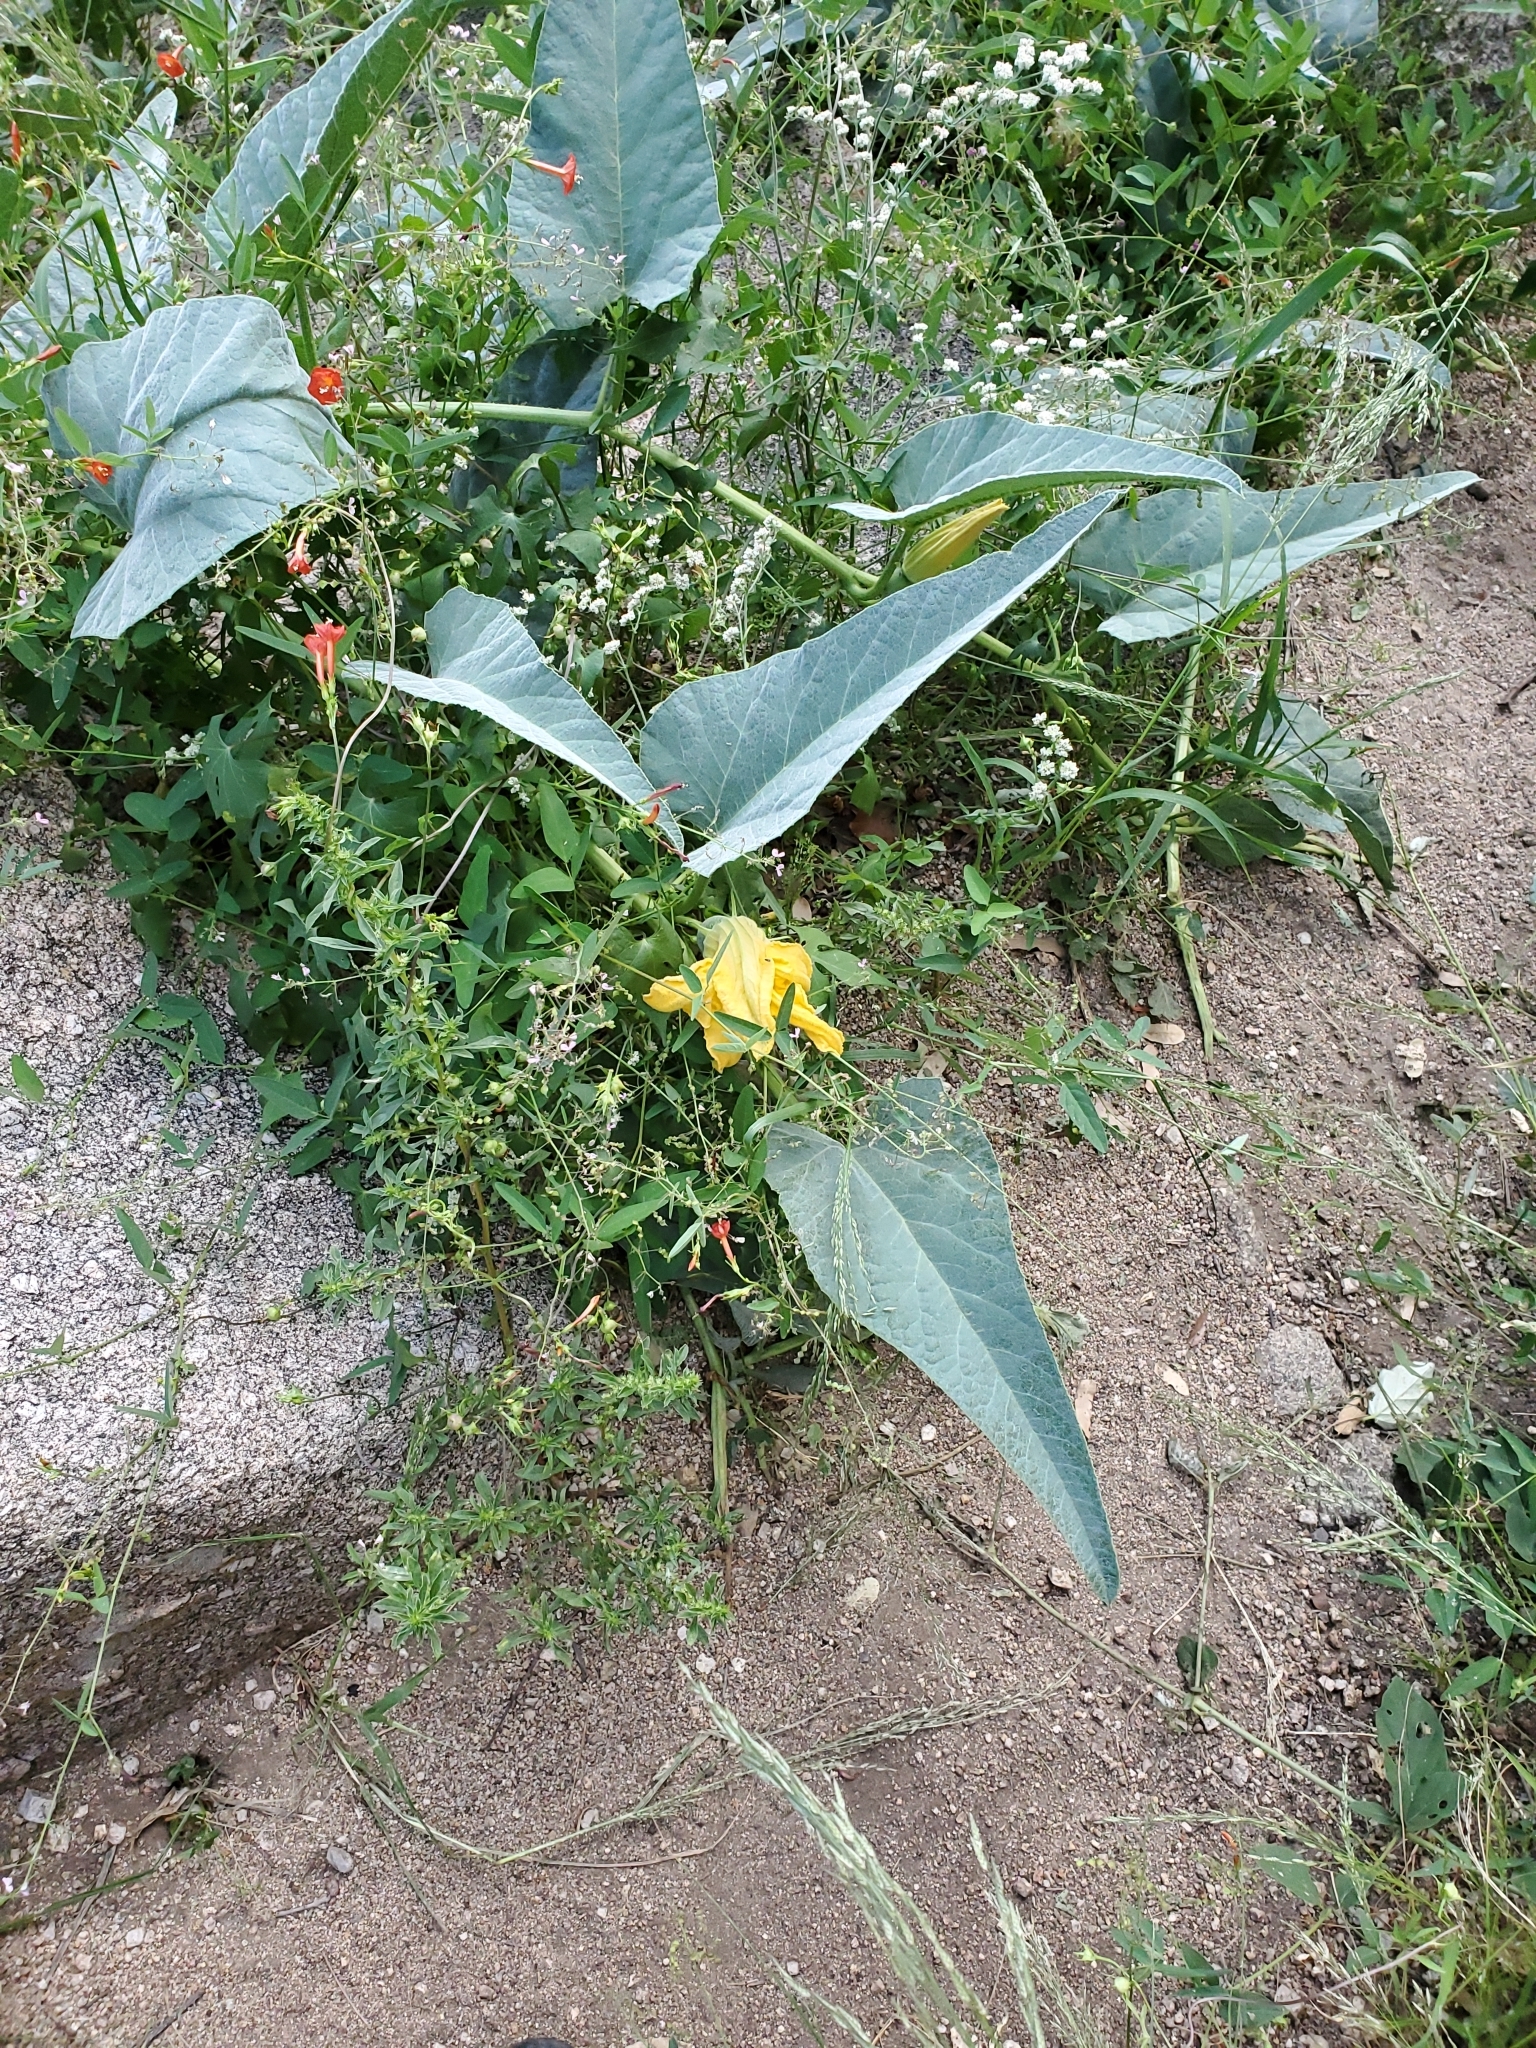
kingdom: Plantae
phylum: Tracheophyta
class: Magnoliopsida
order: Cucurbitales
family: Cucurbitaceae
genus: Cucurbita
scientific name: Cucurbita foetidissima
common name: Buffalo gourd
